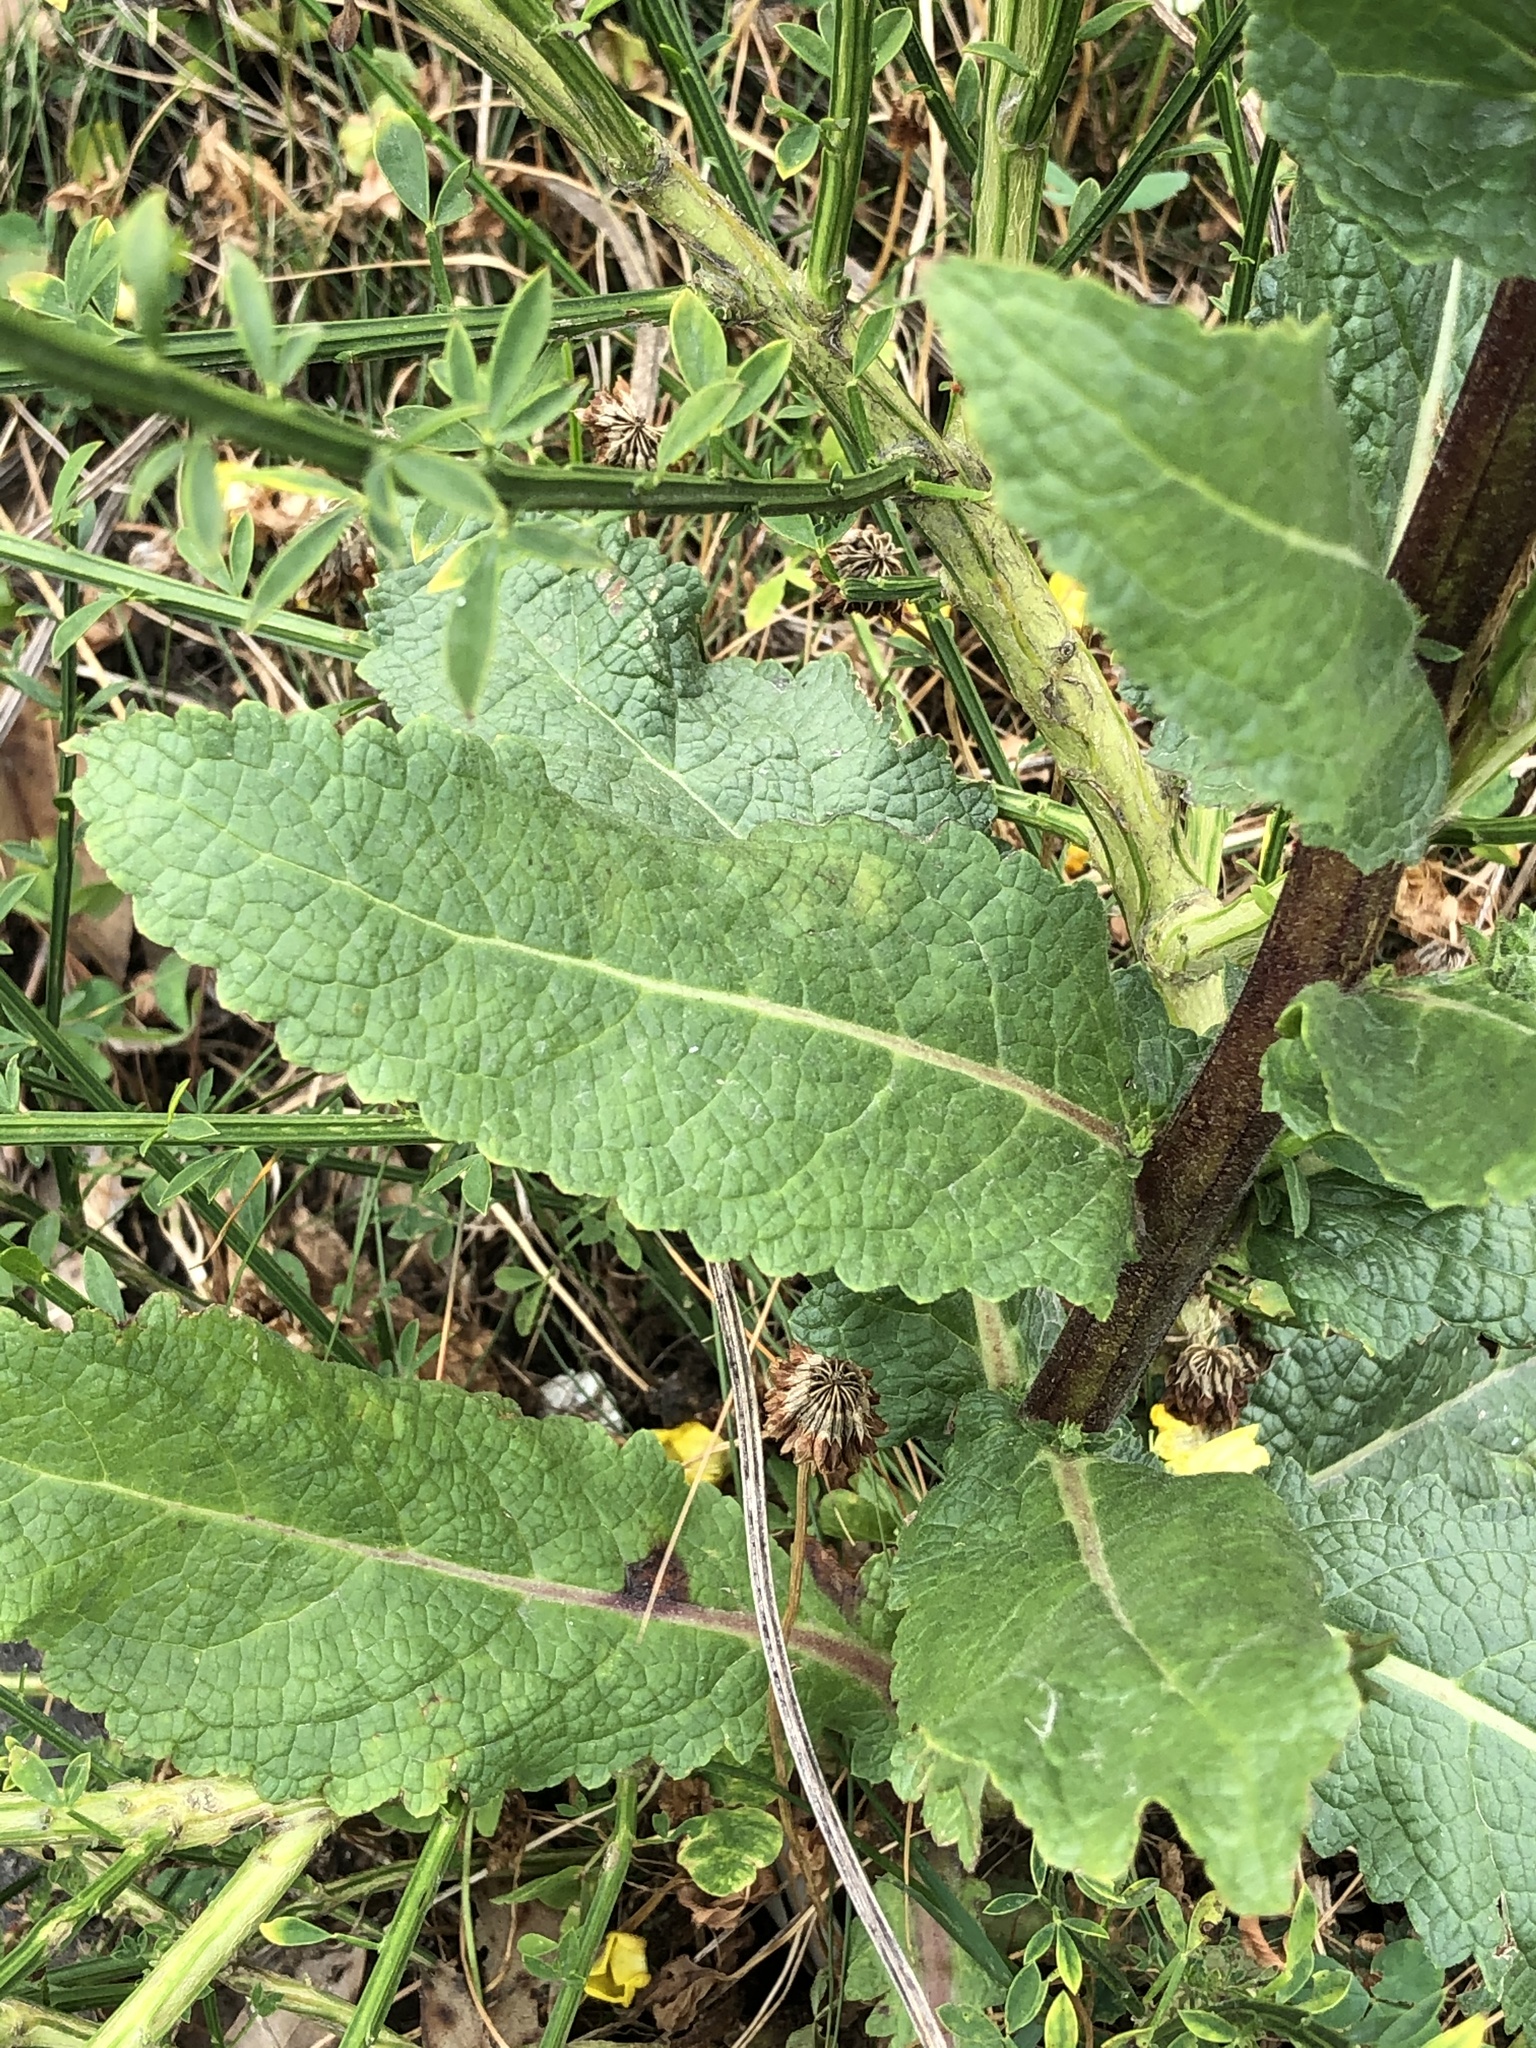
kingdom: Plantae
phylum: Tracheophyta
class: Magnoliopsida
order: Lamiales
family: Scrophulariaceae
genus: Verbascum
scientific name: Verbascum virgatum
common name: Twiggy mullein
